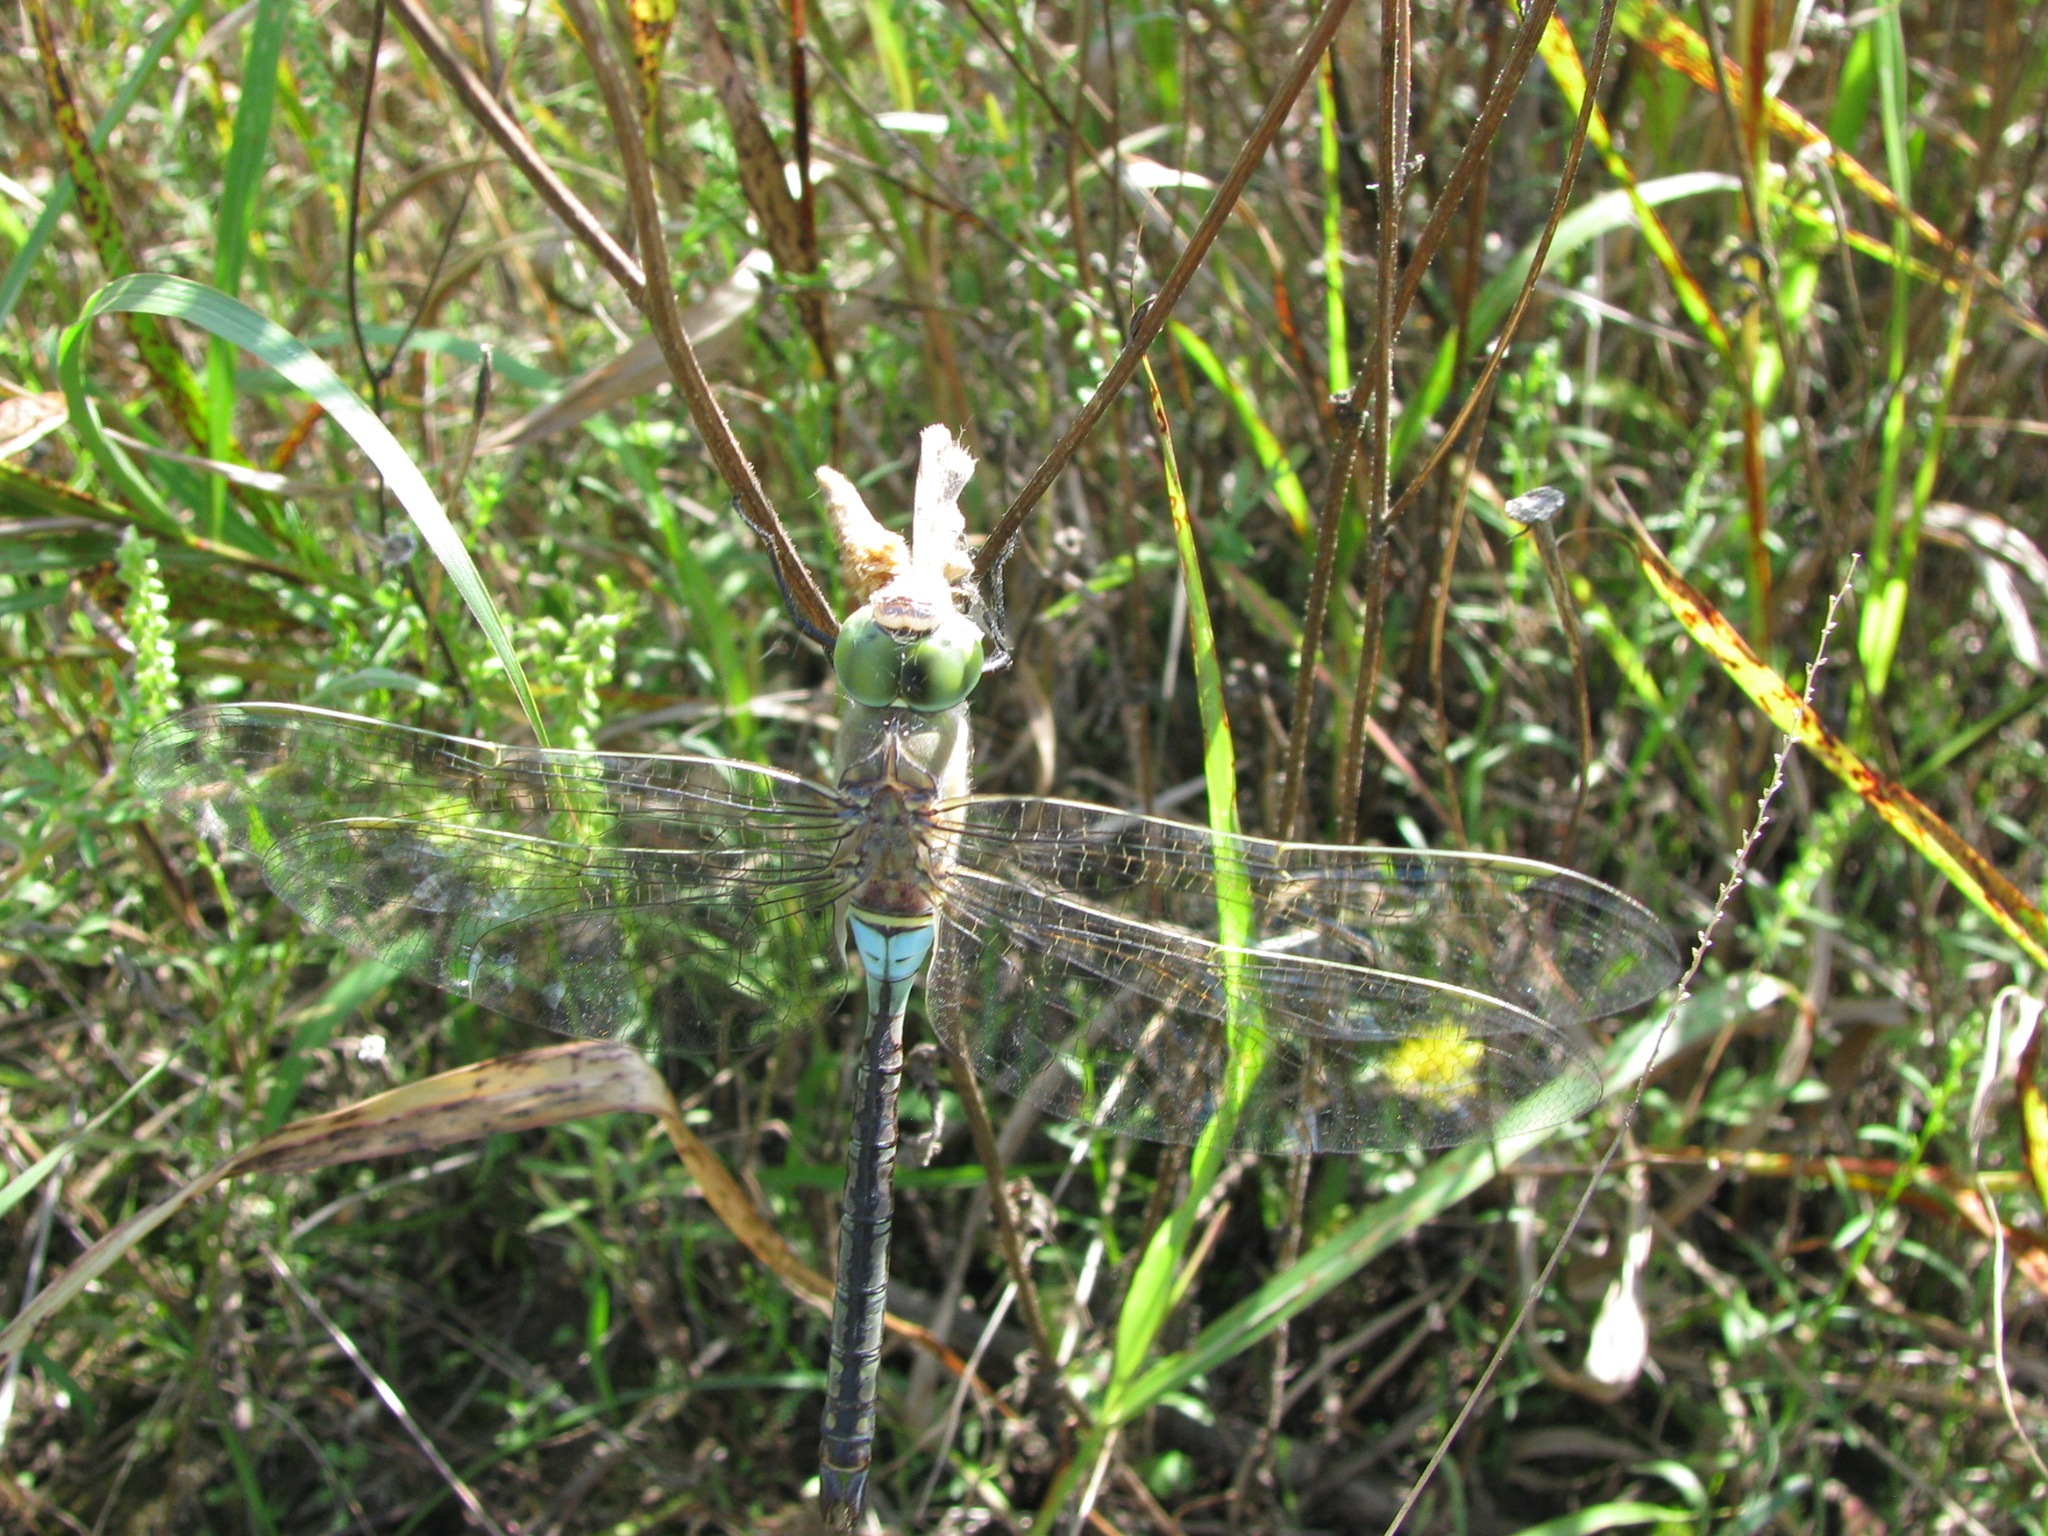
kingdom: Animalia
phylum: Arthropoda
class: Insecta
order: Odonata
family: Aeshnidae
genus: Anax
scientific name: Anax parthenope
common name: Lesser emperor
